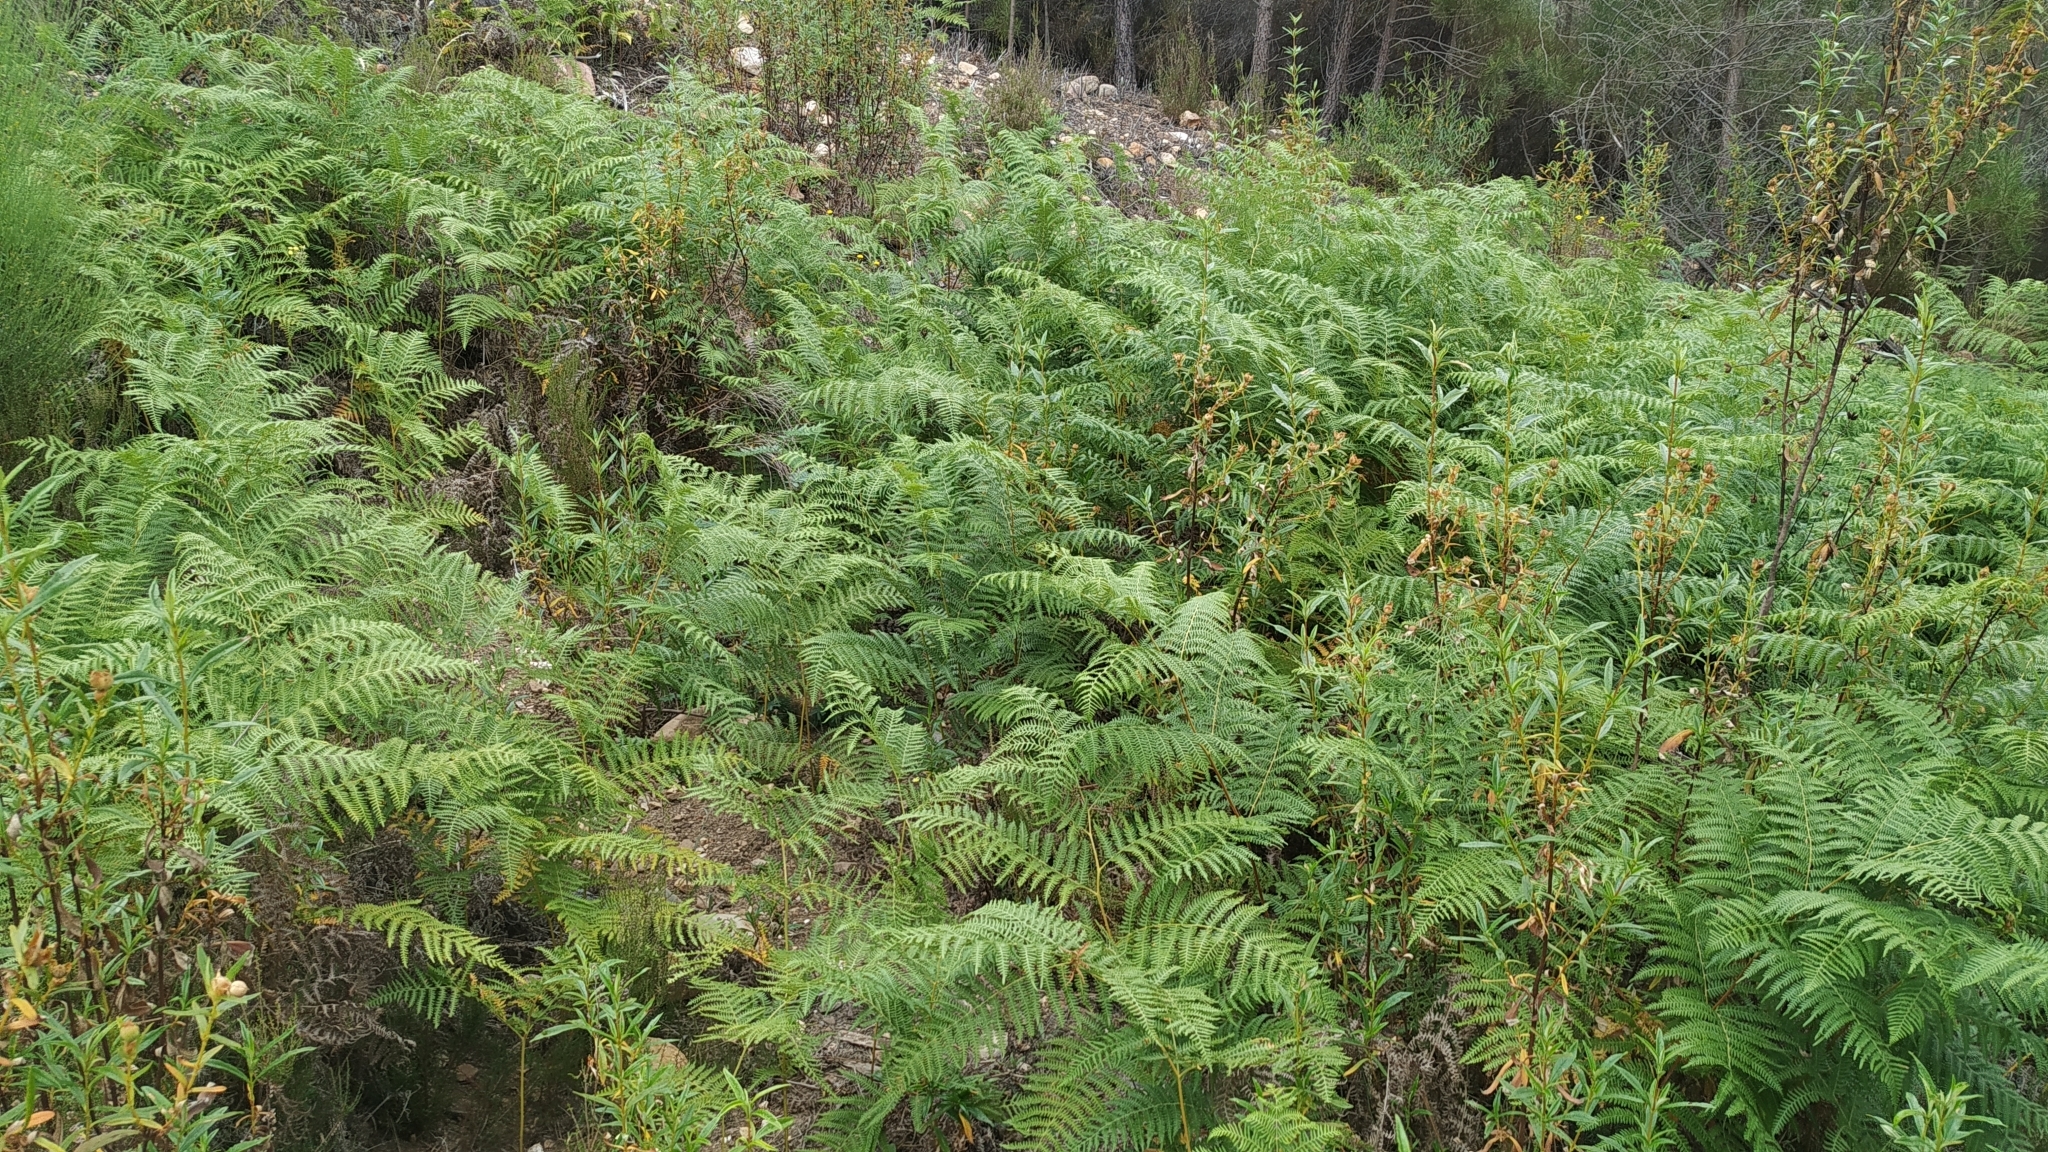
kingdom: Plantae
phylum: Tracheophyta
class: Polypodiopsida
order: Polypodiales
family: Dennstaedtiaceae
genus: Pteridium
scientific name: Pteridium aquilinum
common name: Bracken
